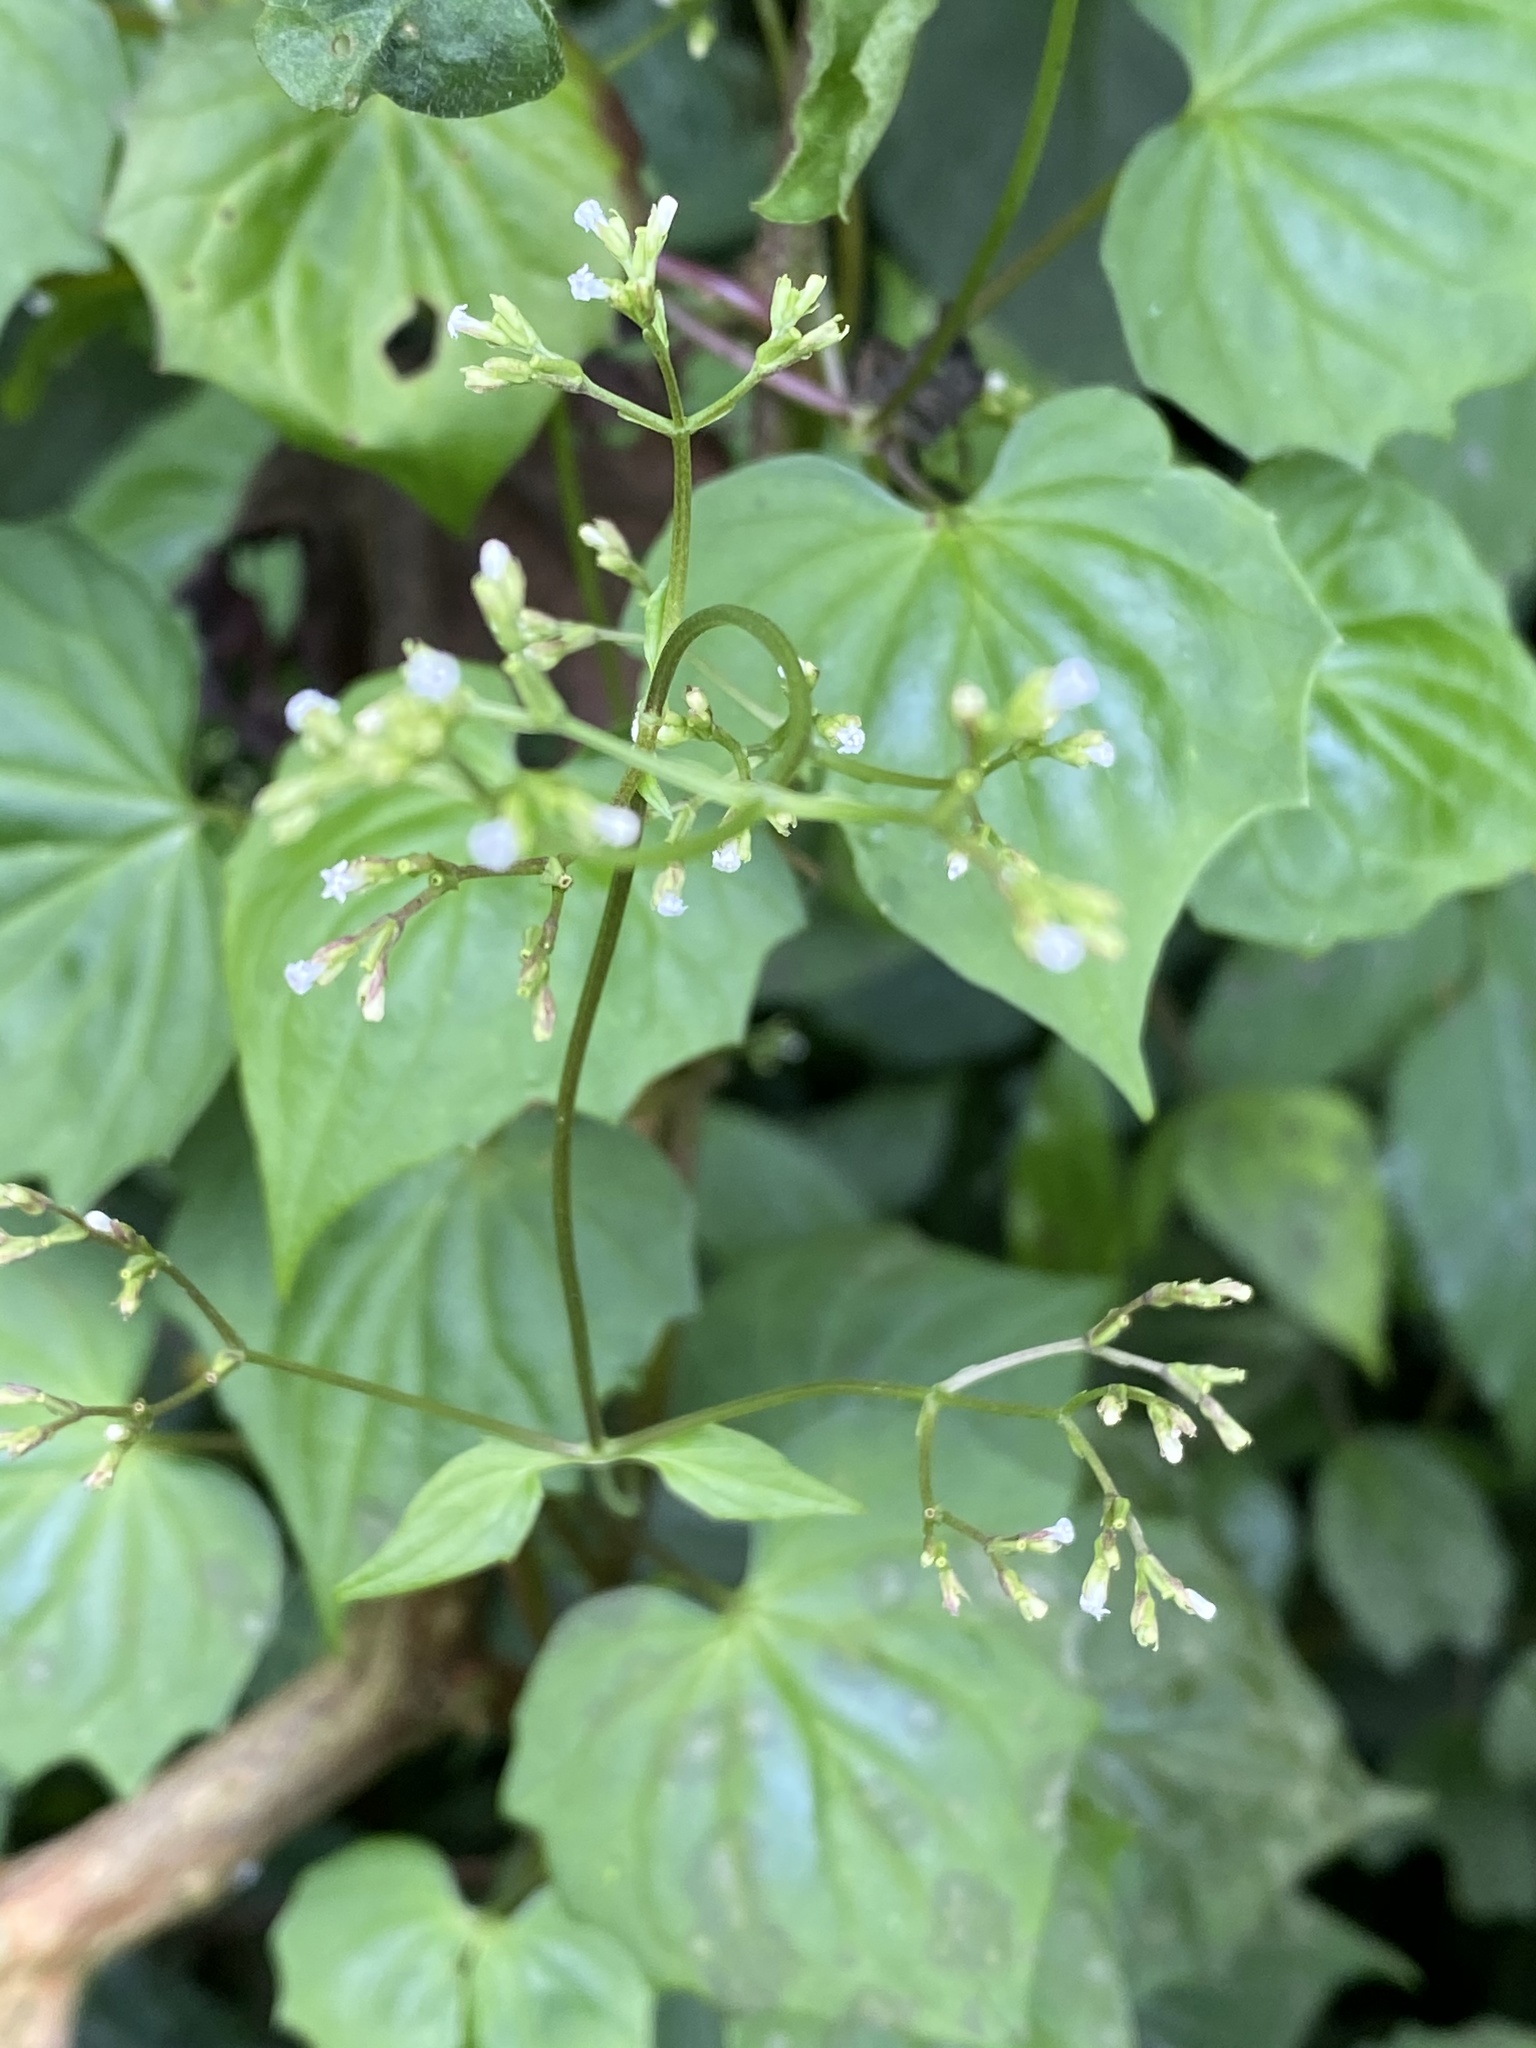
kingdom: Plantae
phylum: Tracheophyta
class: Magnoliopsida
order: Dipsacales
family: Caprifoliaceae
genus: Valeriana
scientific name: Valeriana scandens
